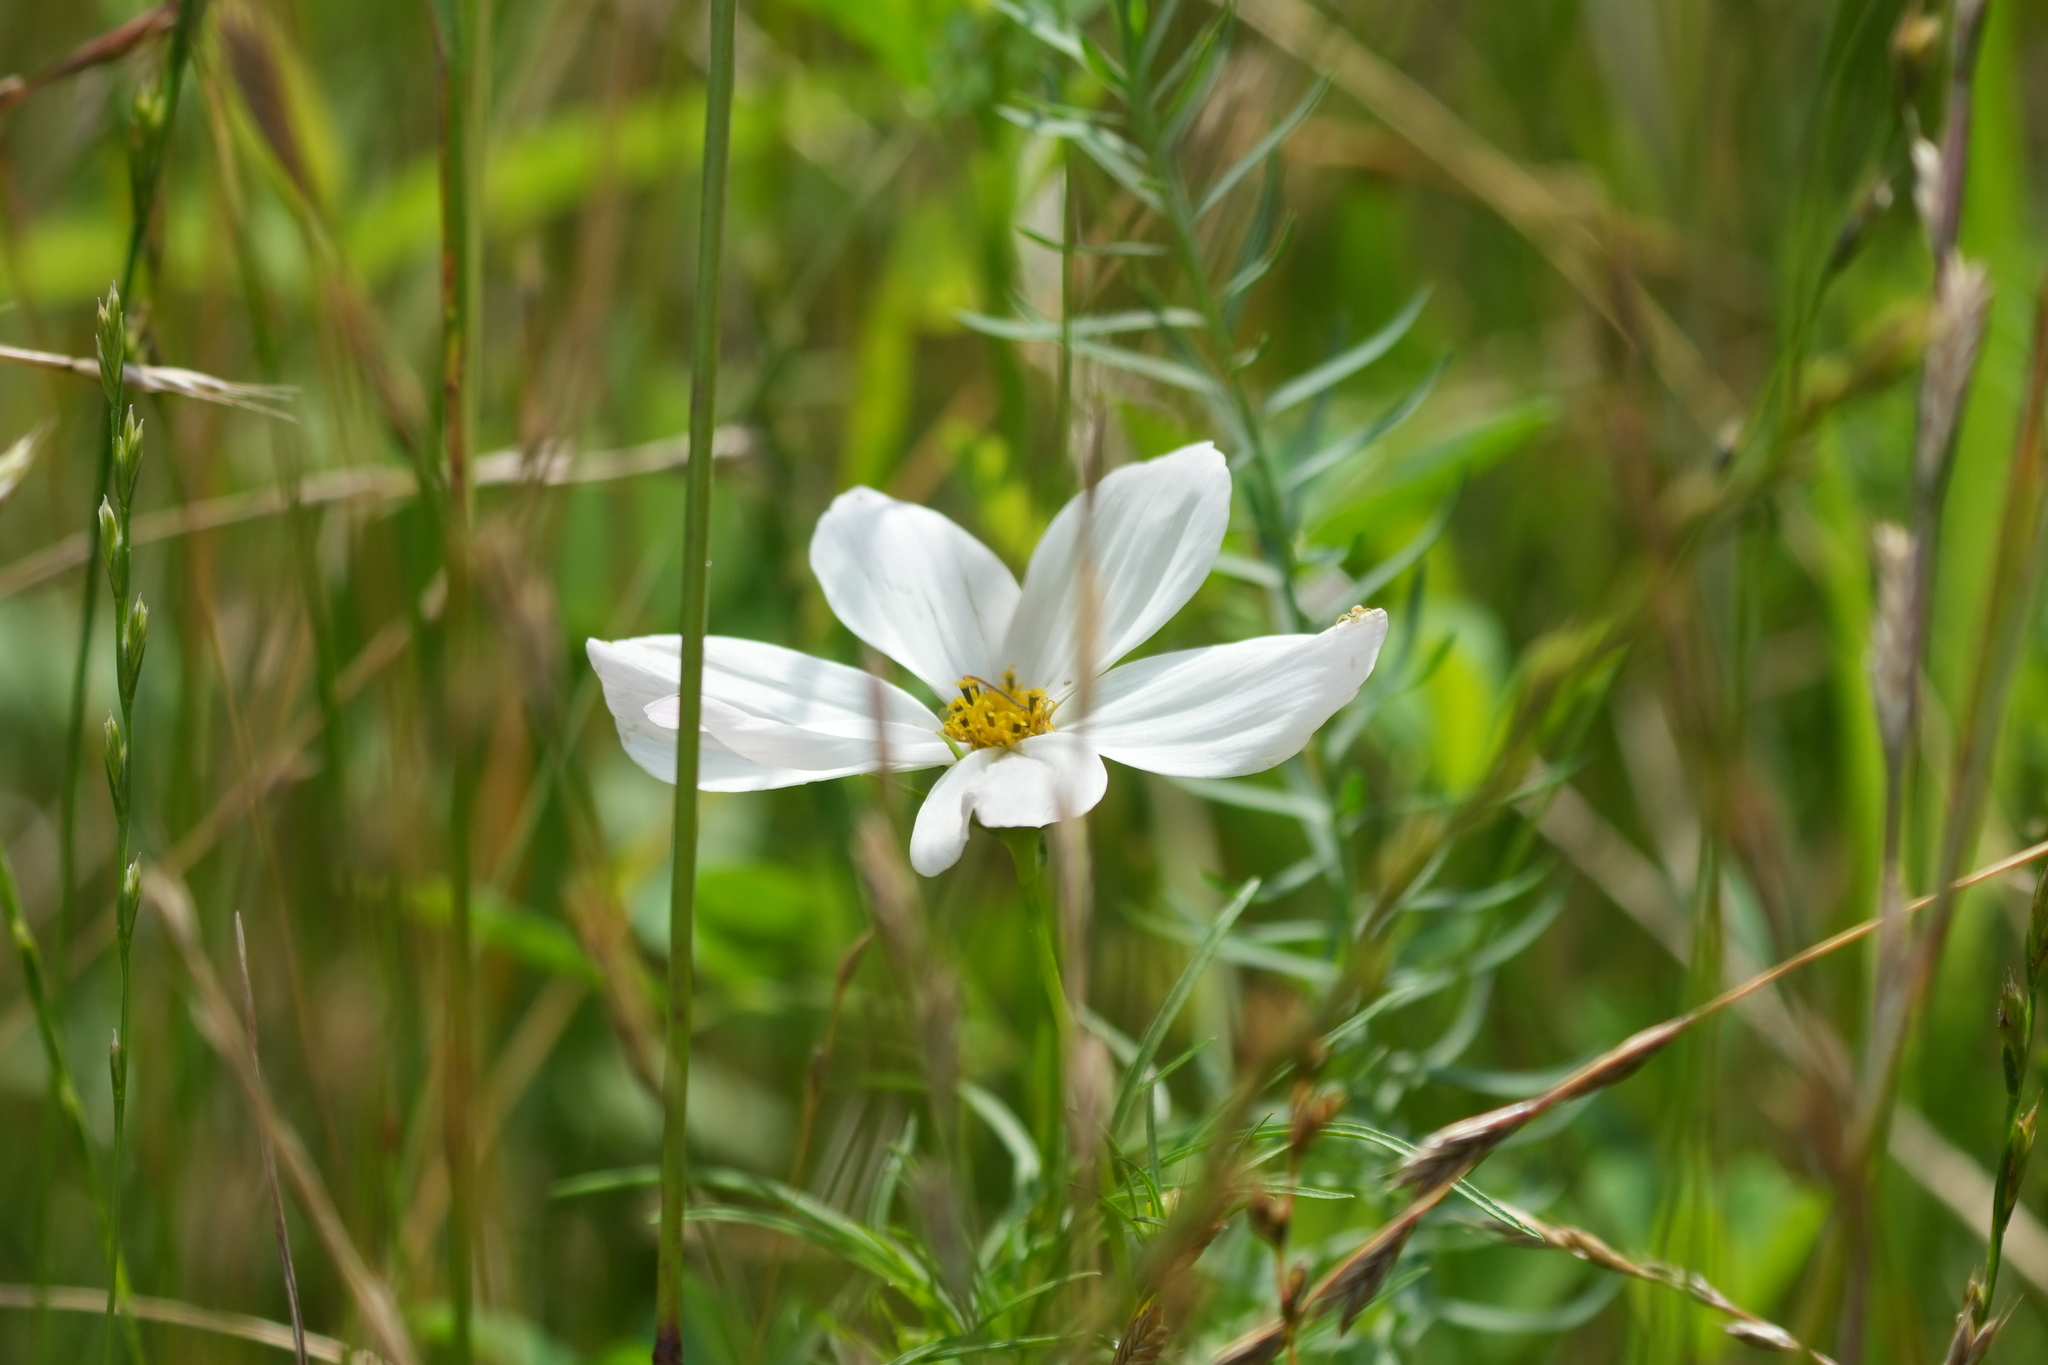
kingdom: Plantae
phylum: Tracheophyta
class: Magnoliopsida
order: Asterales
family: Asteraceae
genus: Cosmos
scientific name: Cosmos bipinnatus
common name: Garden cosmos
